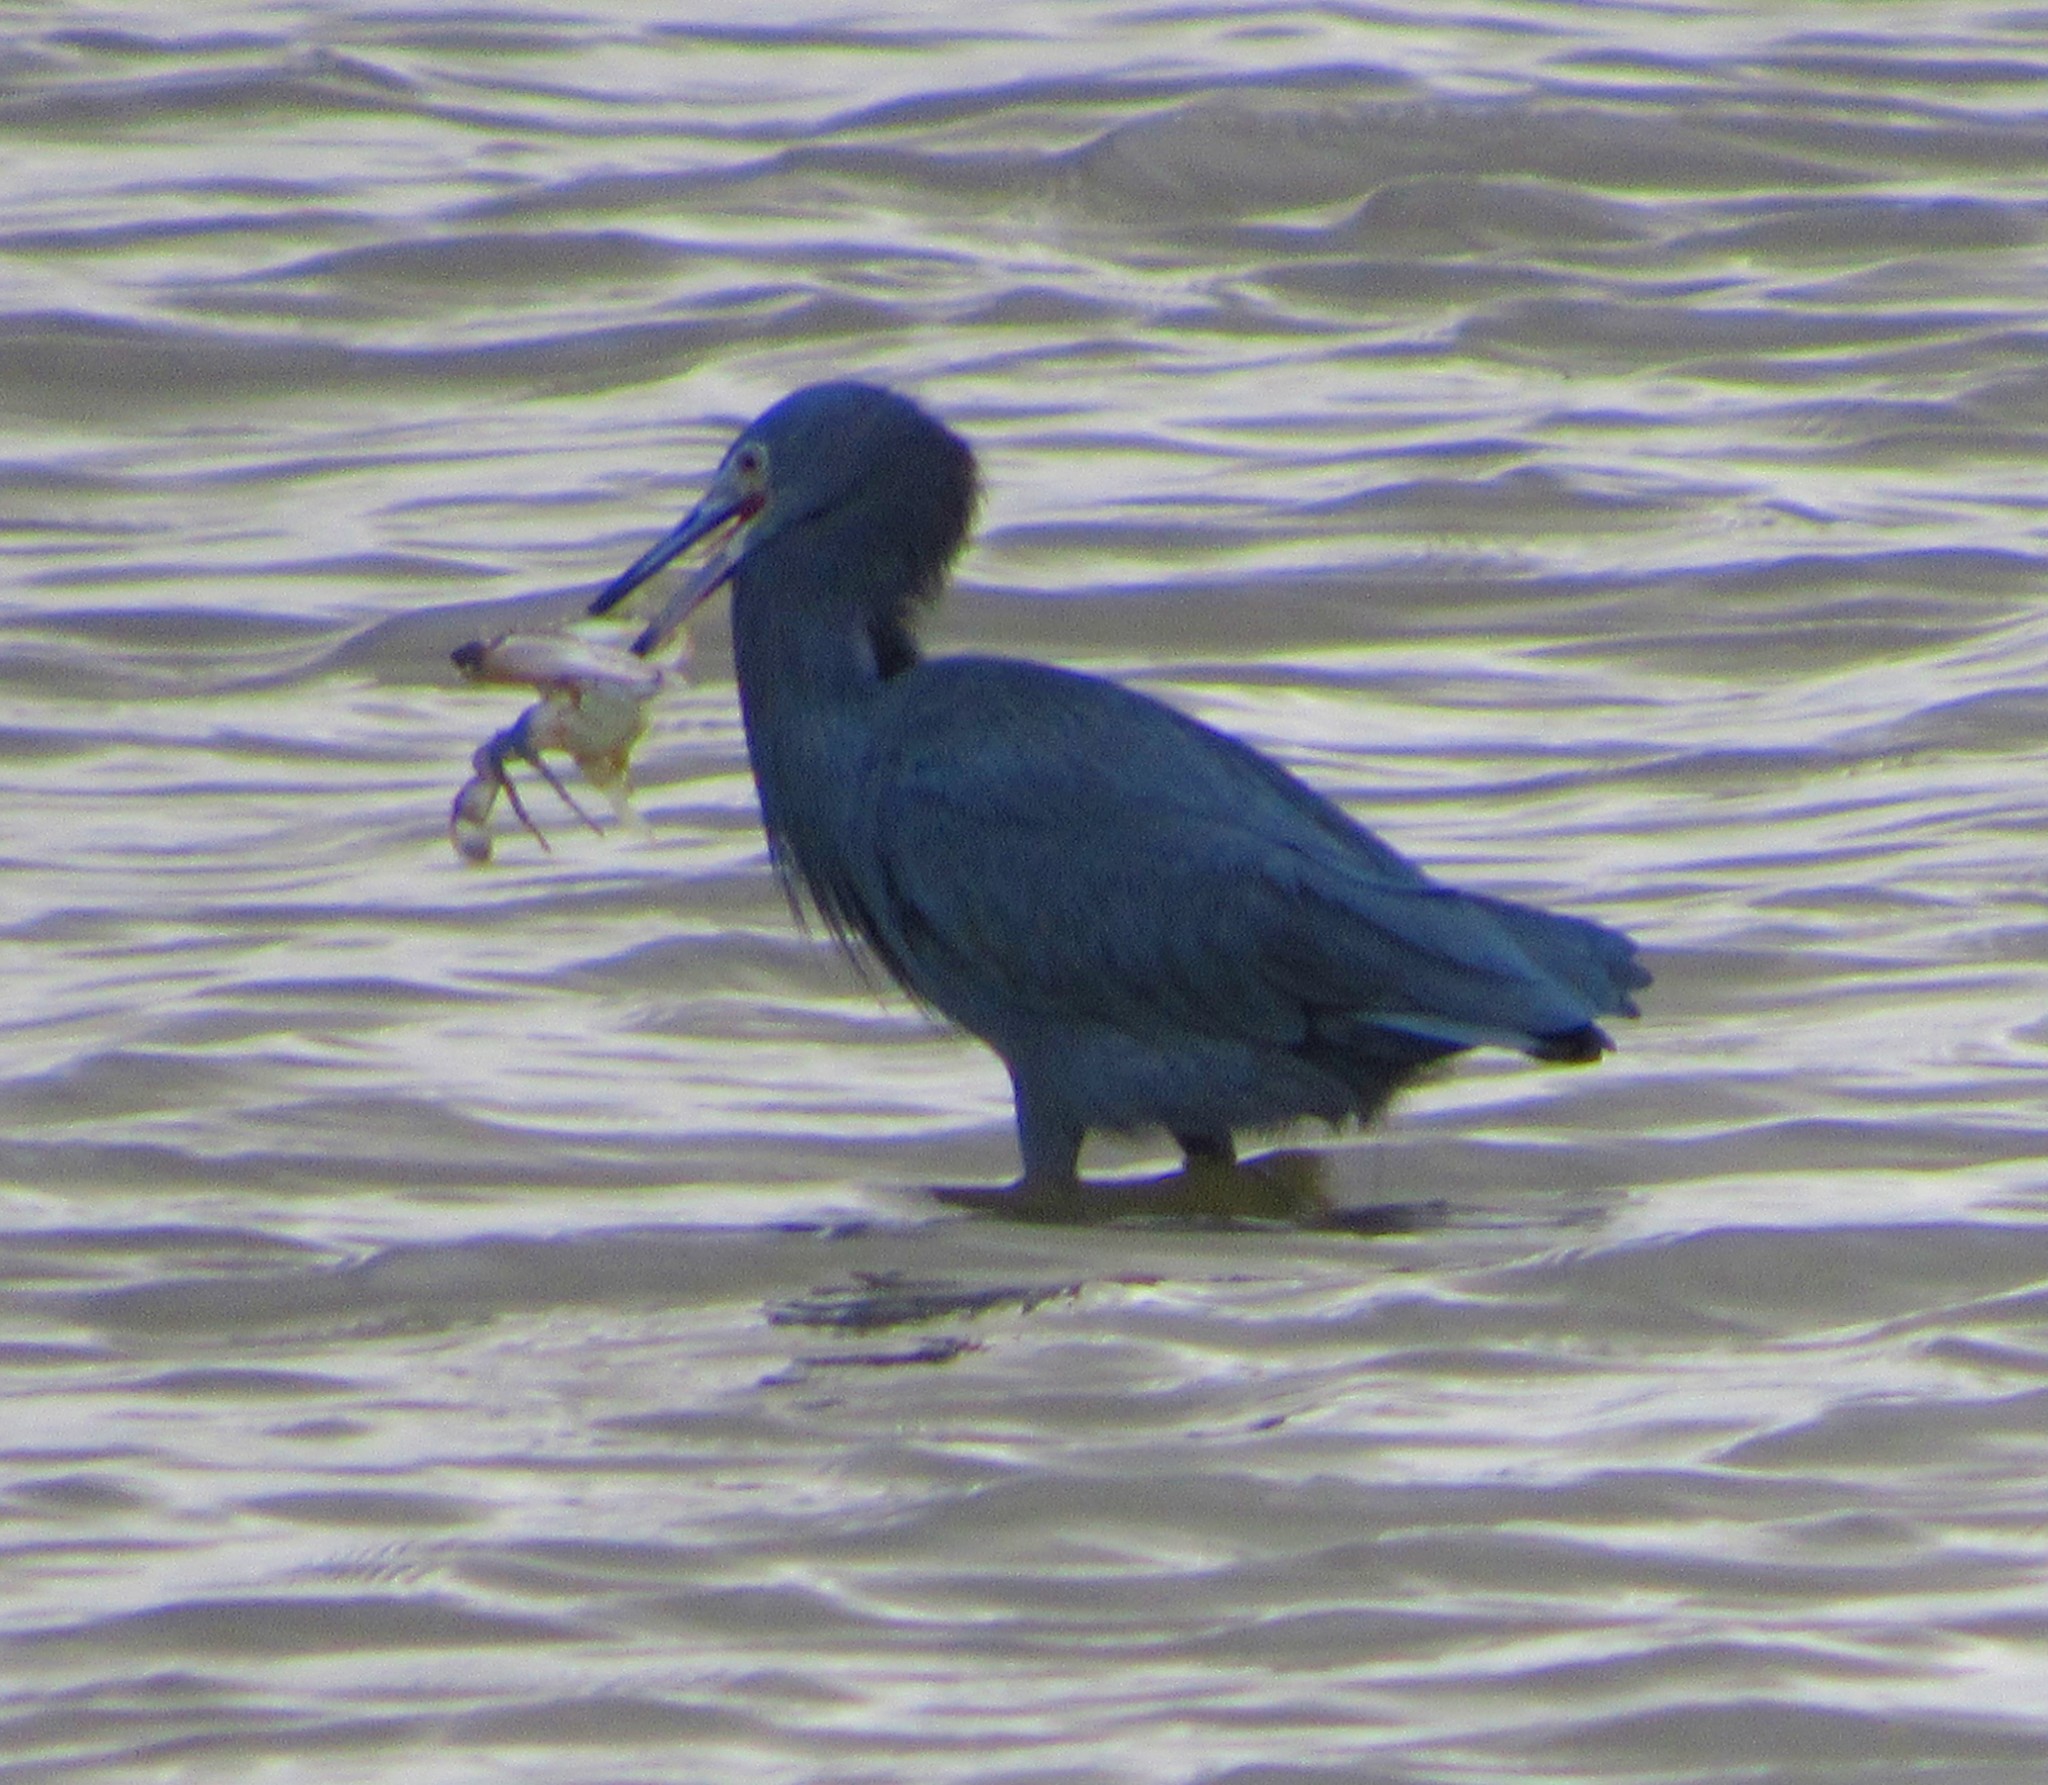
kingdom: Animalia
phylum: Chordata
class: Aves
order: Pelecaniformes
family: Ardeidae
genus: Egretta
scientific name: Egretta caerulea
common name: Little blue heron
